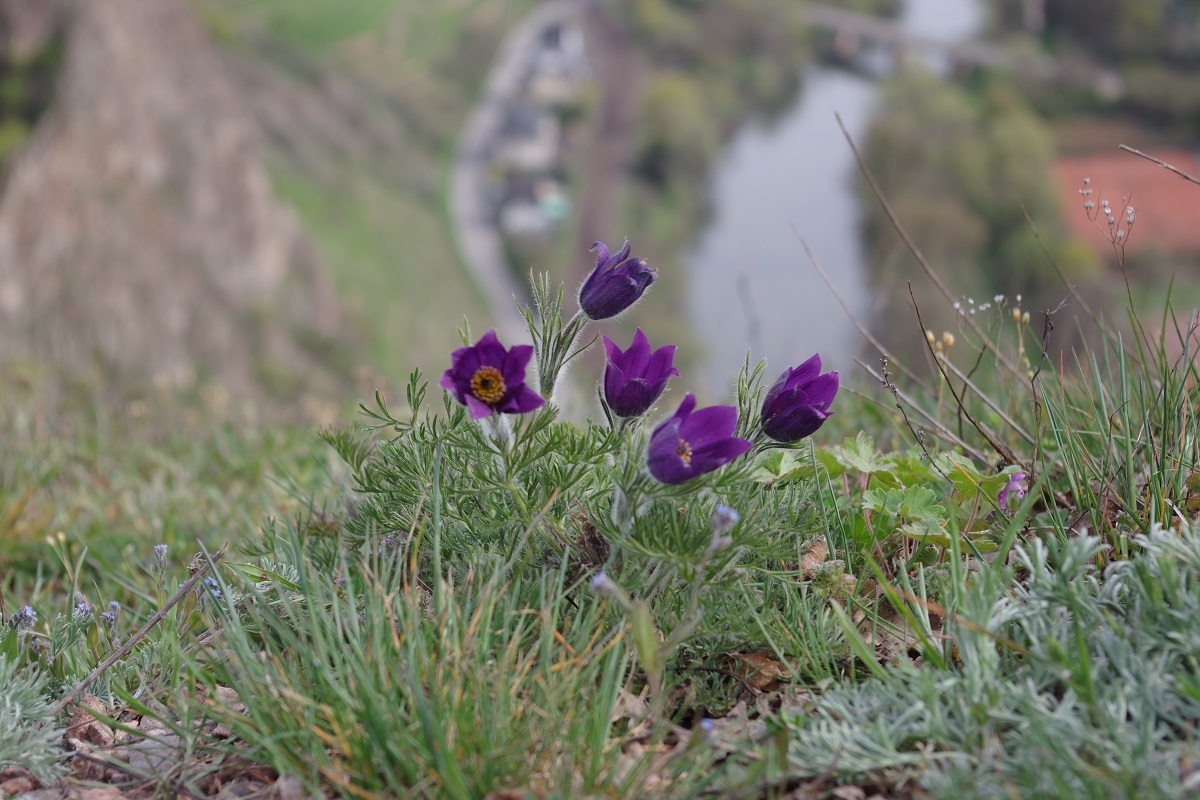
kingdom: Plantae
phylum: Tracheophyta
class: Magnoliopsida
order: Ranunculales
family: Ranunculaceae
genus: Pulsatilla
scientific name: Pulsatilla vulgaris
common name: Pasqueflower
